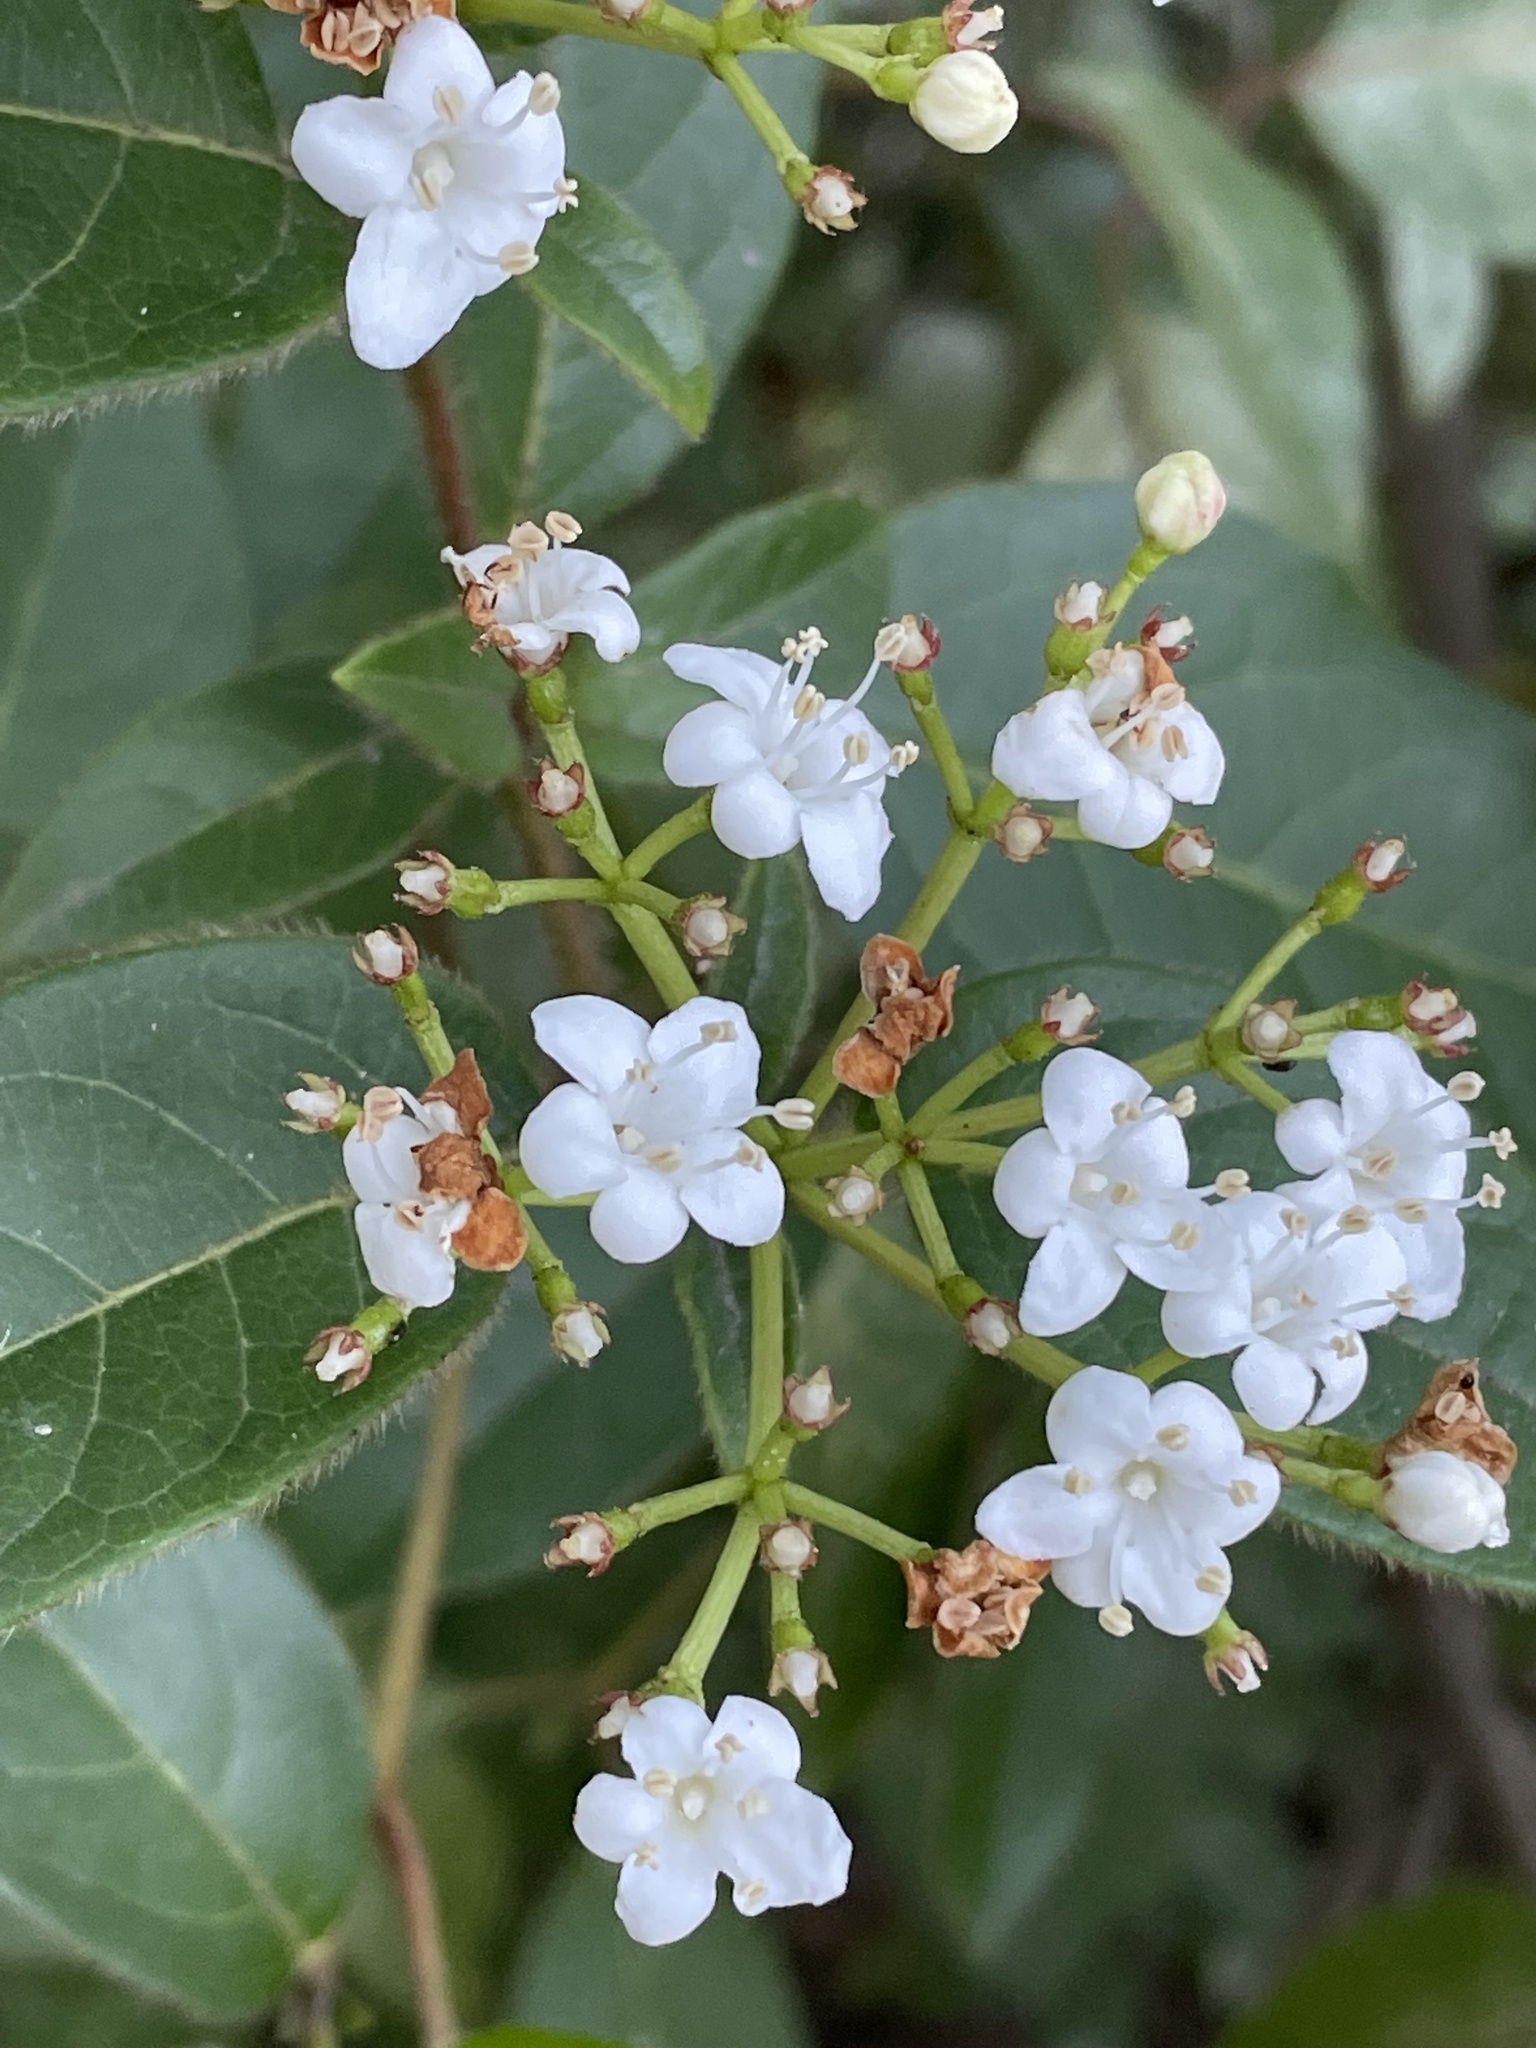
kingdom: Plantae
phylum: Tracheophyta
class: Magnoliopsida
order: Dipsacales
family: Viburnaceae
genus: Viburnum
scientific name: Viburnum tinus
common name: Laurustinus
